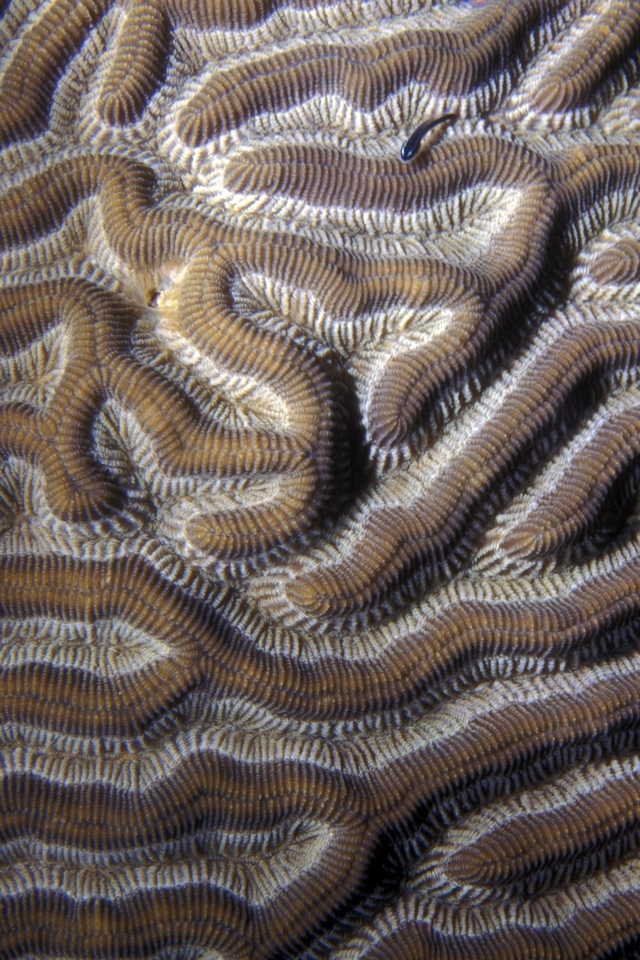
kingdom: Animalia
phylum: Cnidaria
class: Anthozoa
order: Scleractinia
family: Faviidae
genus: Colpophyllia
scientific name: Colpophyllia natans
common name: Boulder brain coral
